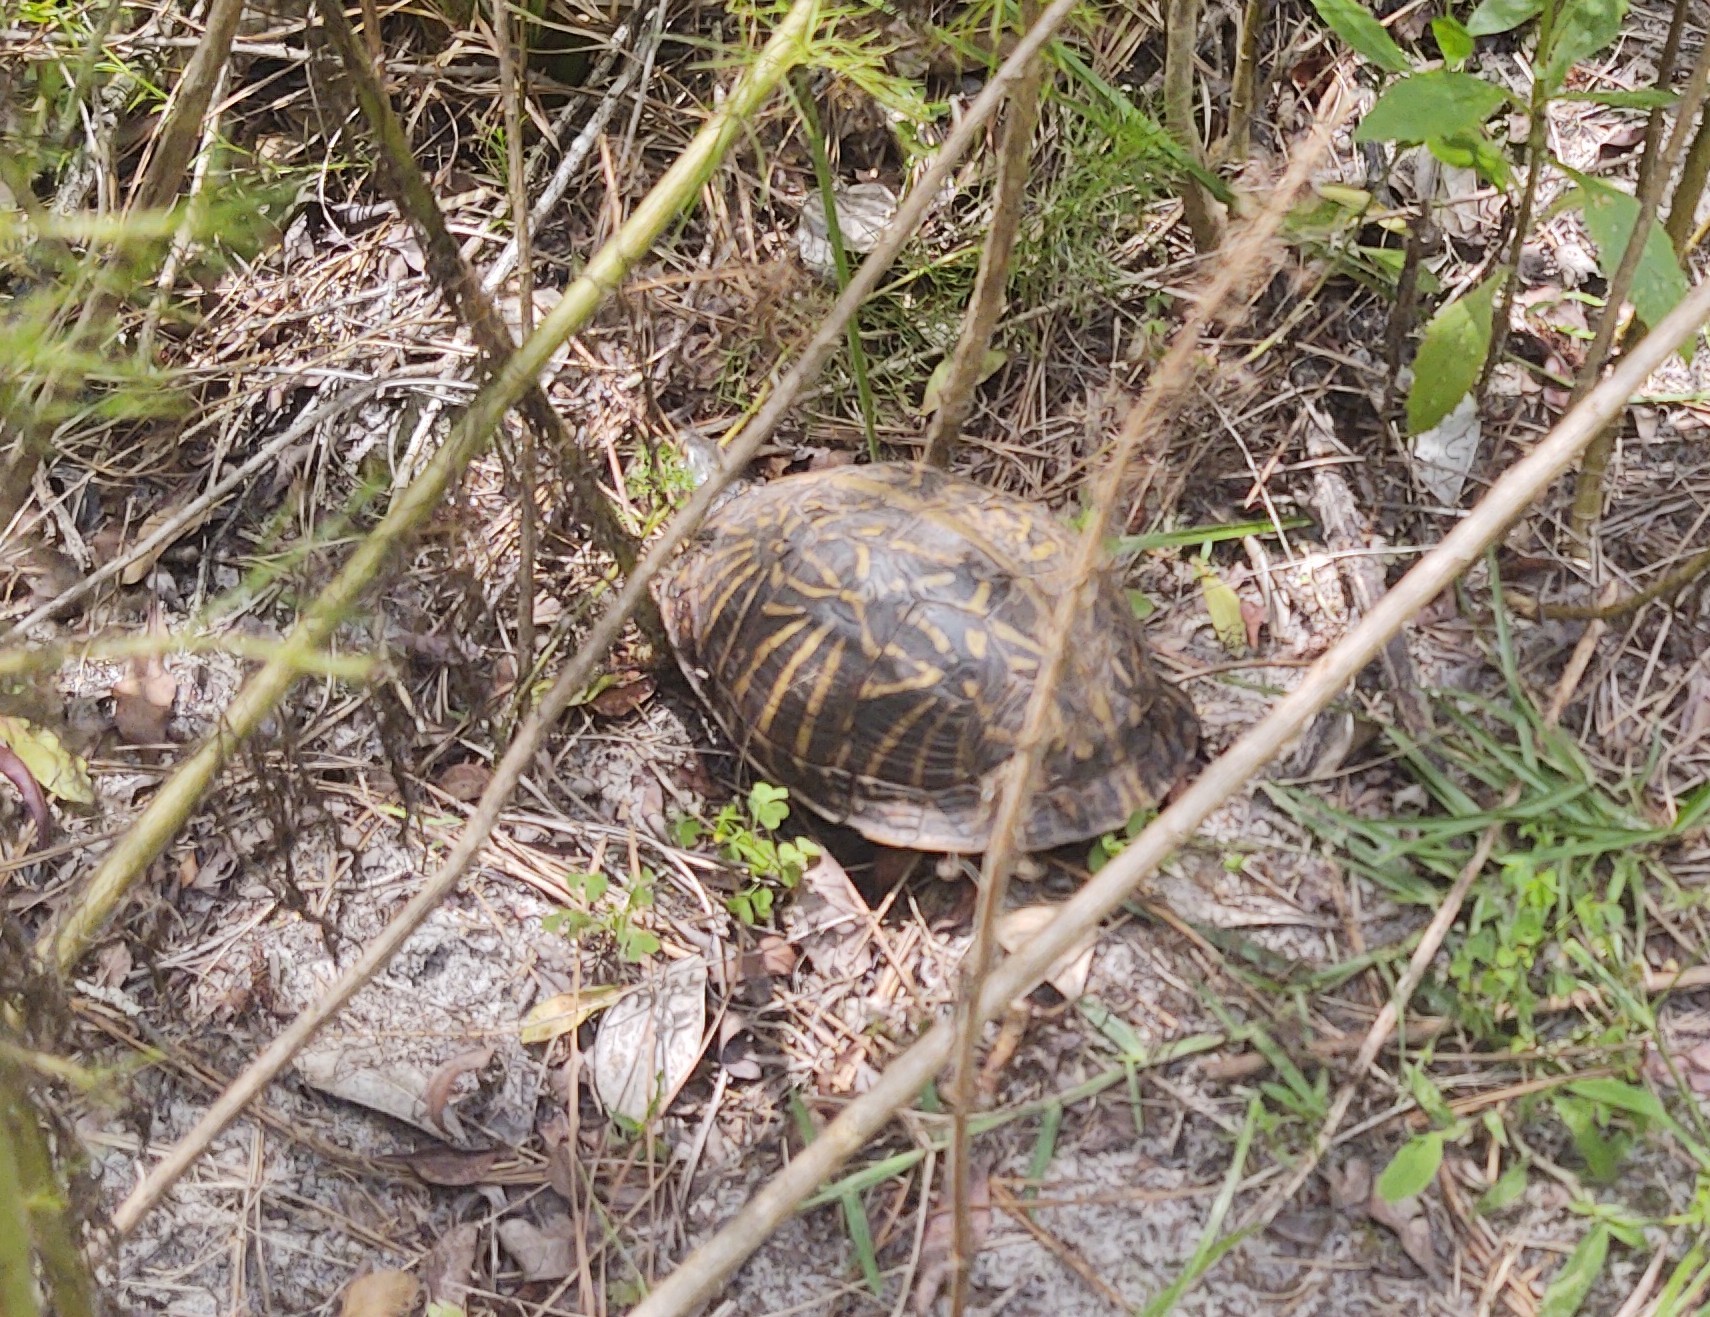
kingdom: Animalia
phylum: Chordata
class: Testudines
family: Emydidae
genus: Terrapene
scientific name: Terrapene carolina
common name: Common box turtle
